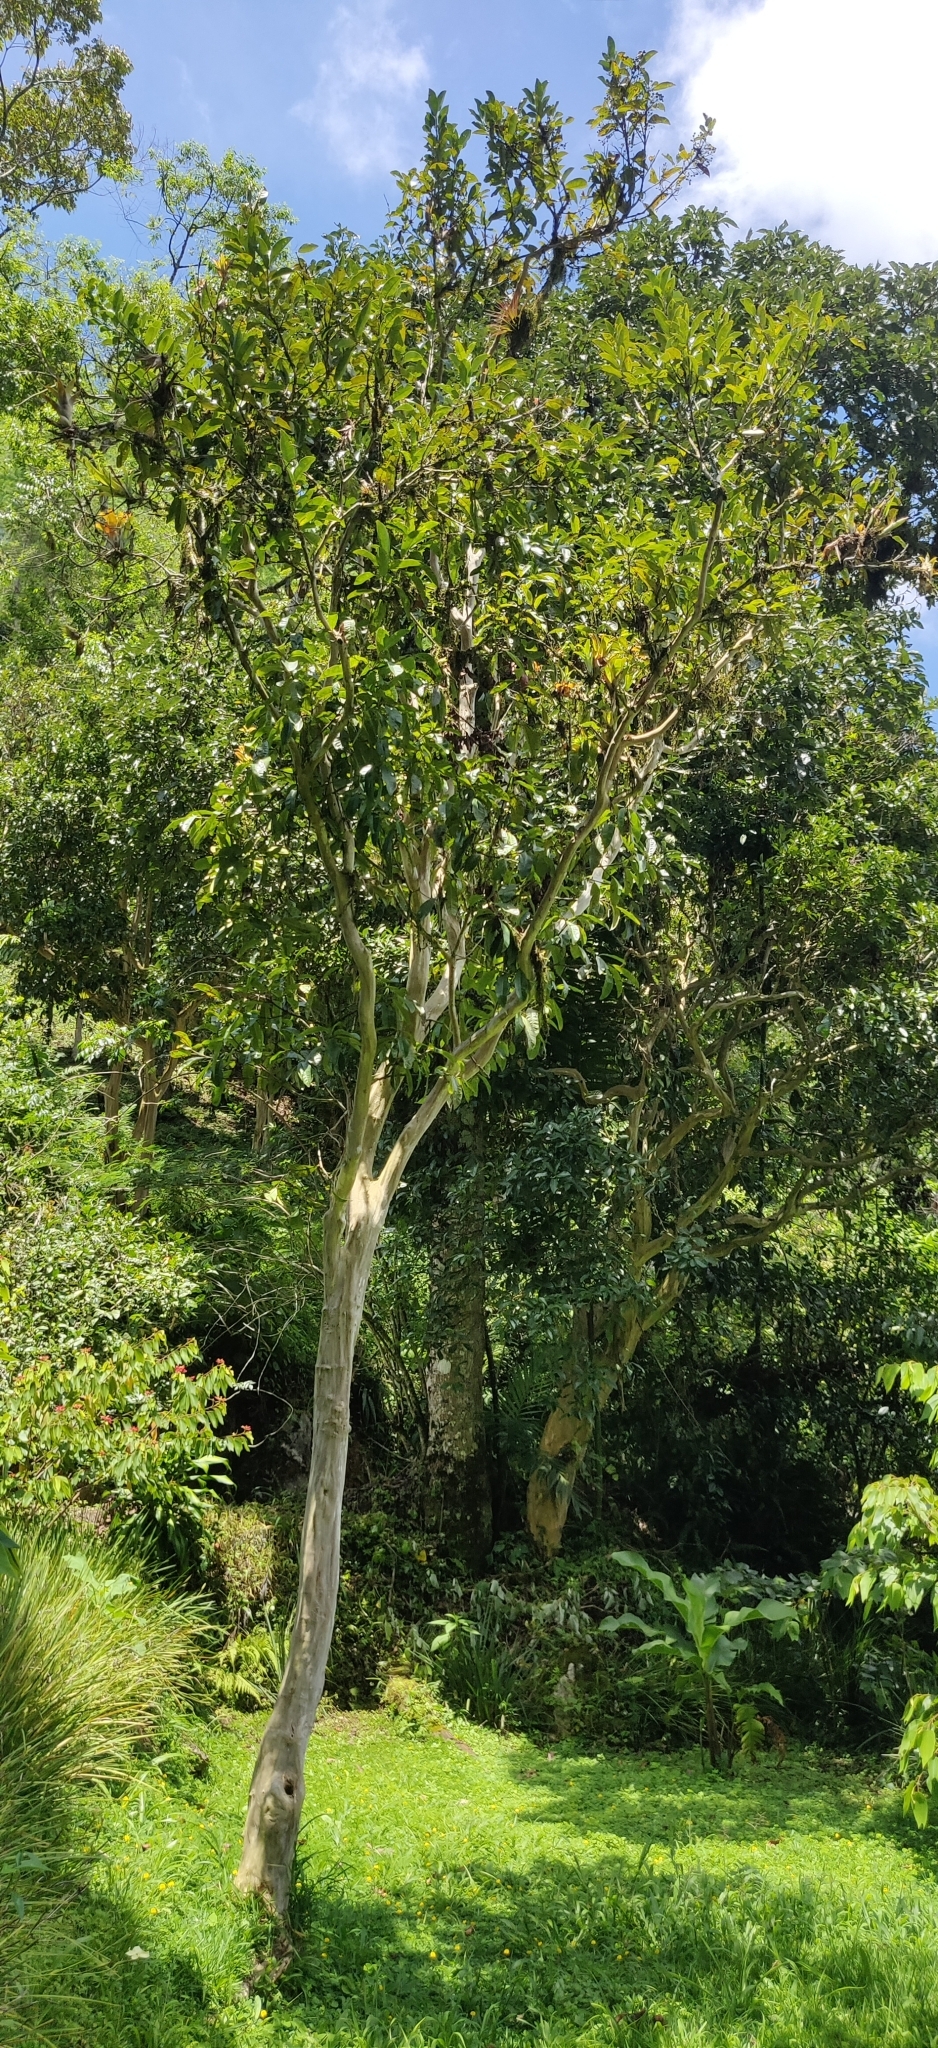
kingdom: Plantae
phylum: Tracheophyta
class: Magnoliopsida
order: Myrtales
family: Myrtaceae
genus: Pimenta
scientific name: Pimenta dioica
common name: Allspice
